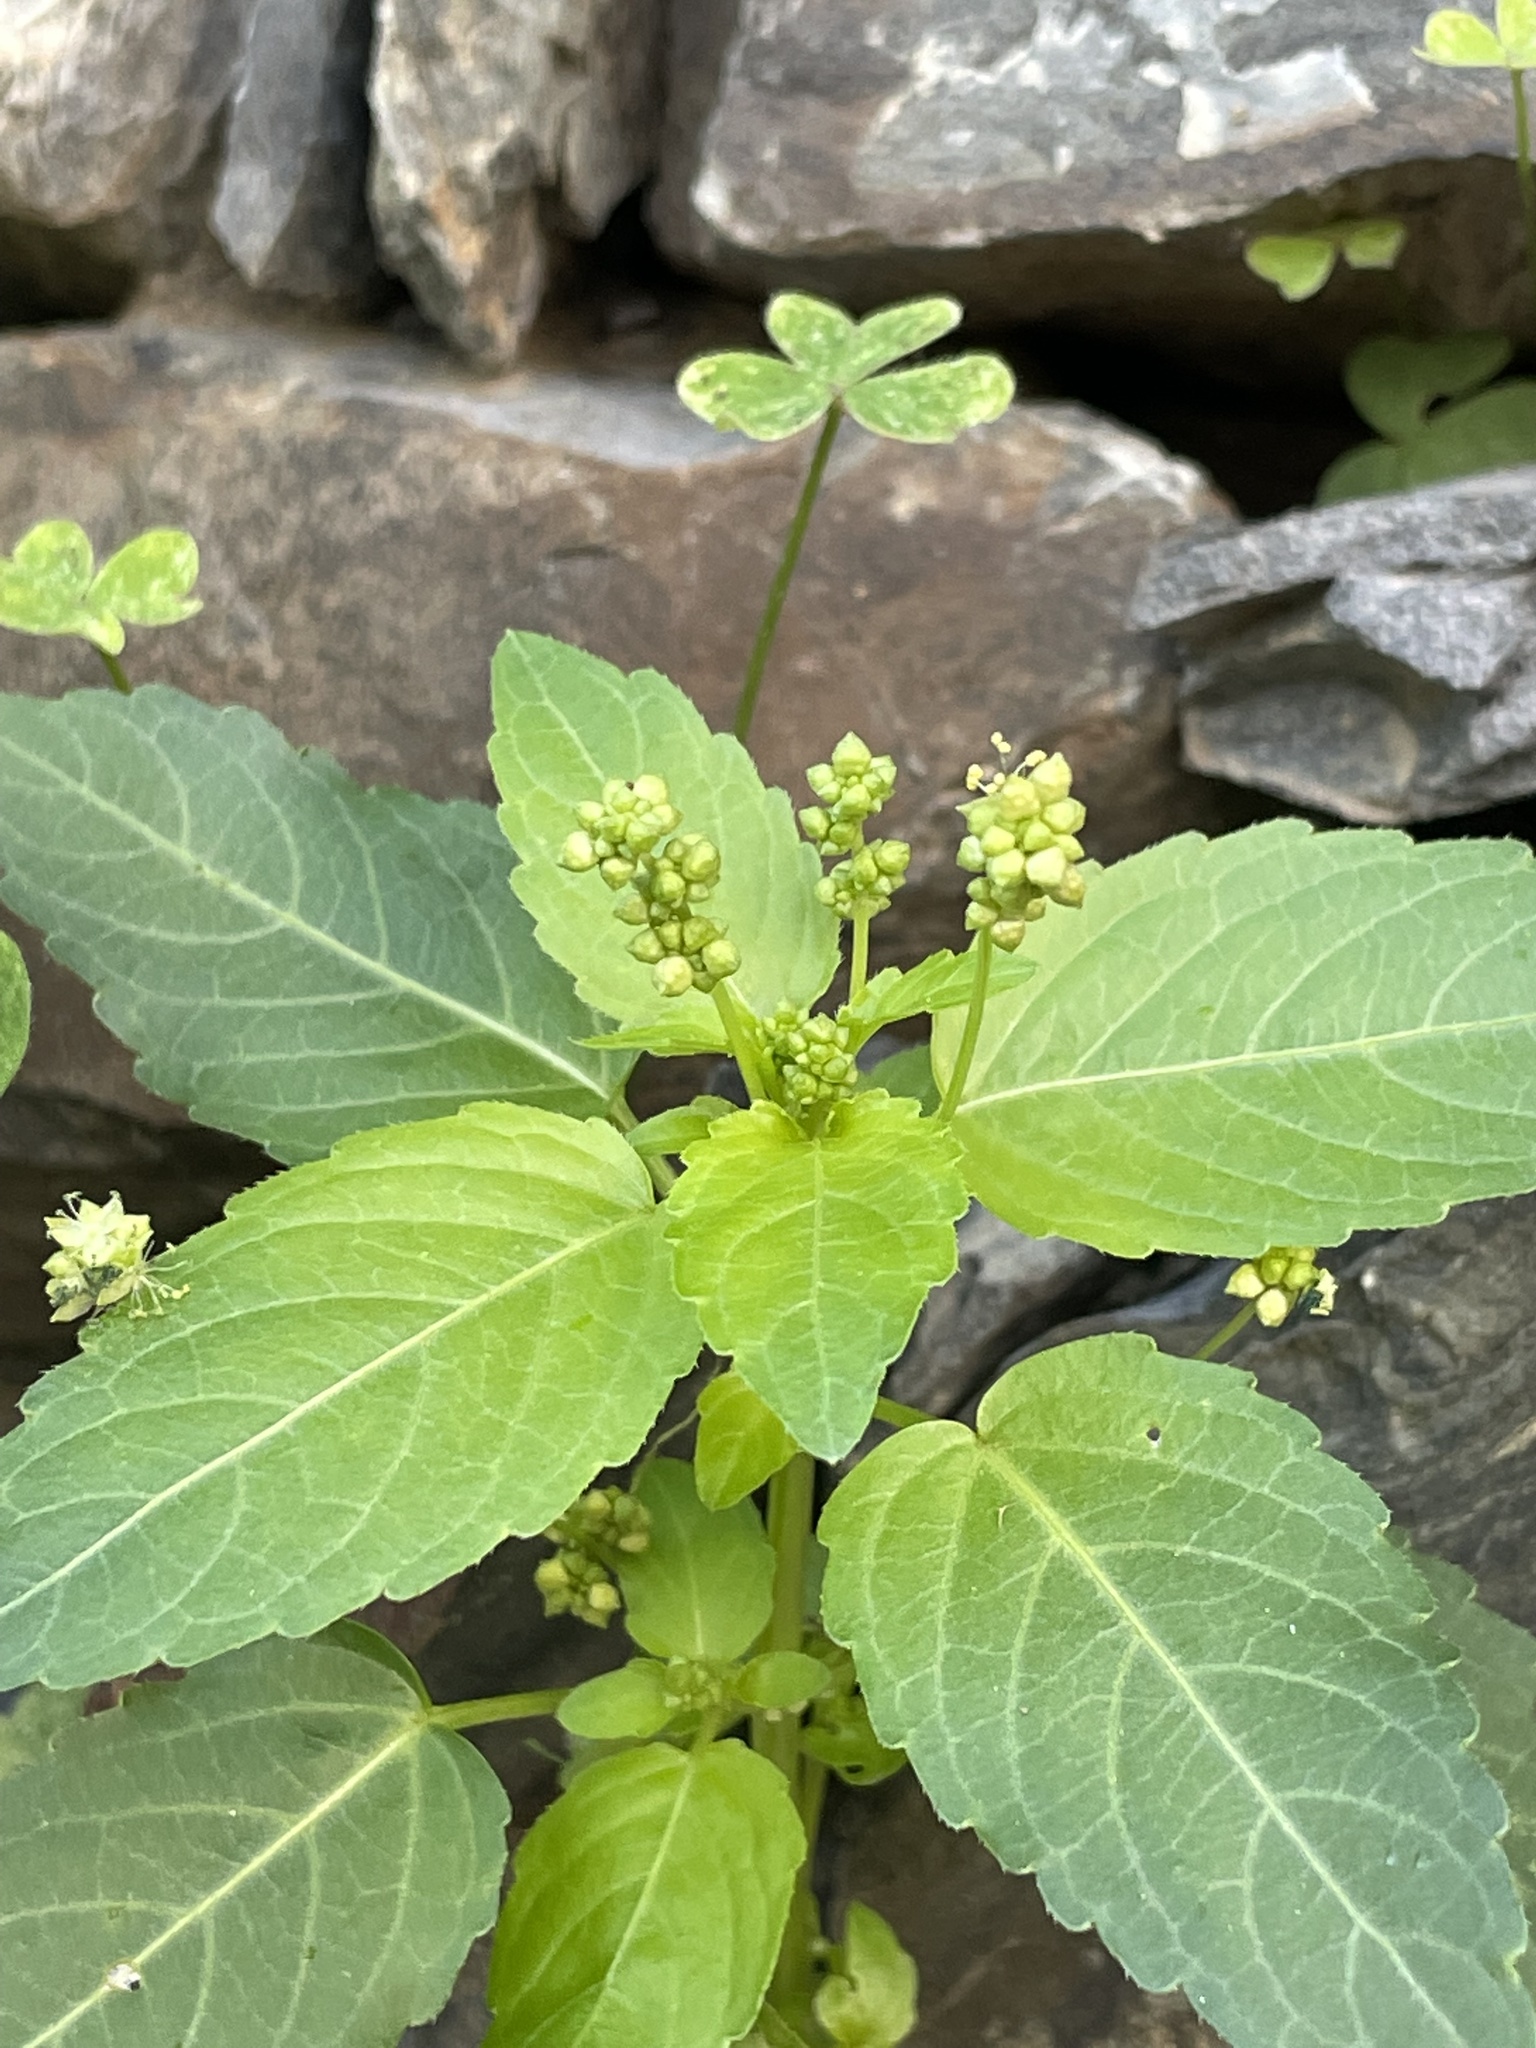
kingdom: Plantae
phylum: Tracheophyta
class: Magnoliopsida
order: Malpighiales
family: Euphorbiaceae
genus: Mercurialis
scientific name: Mercurialis annua
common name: Annual mercury
